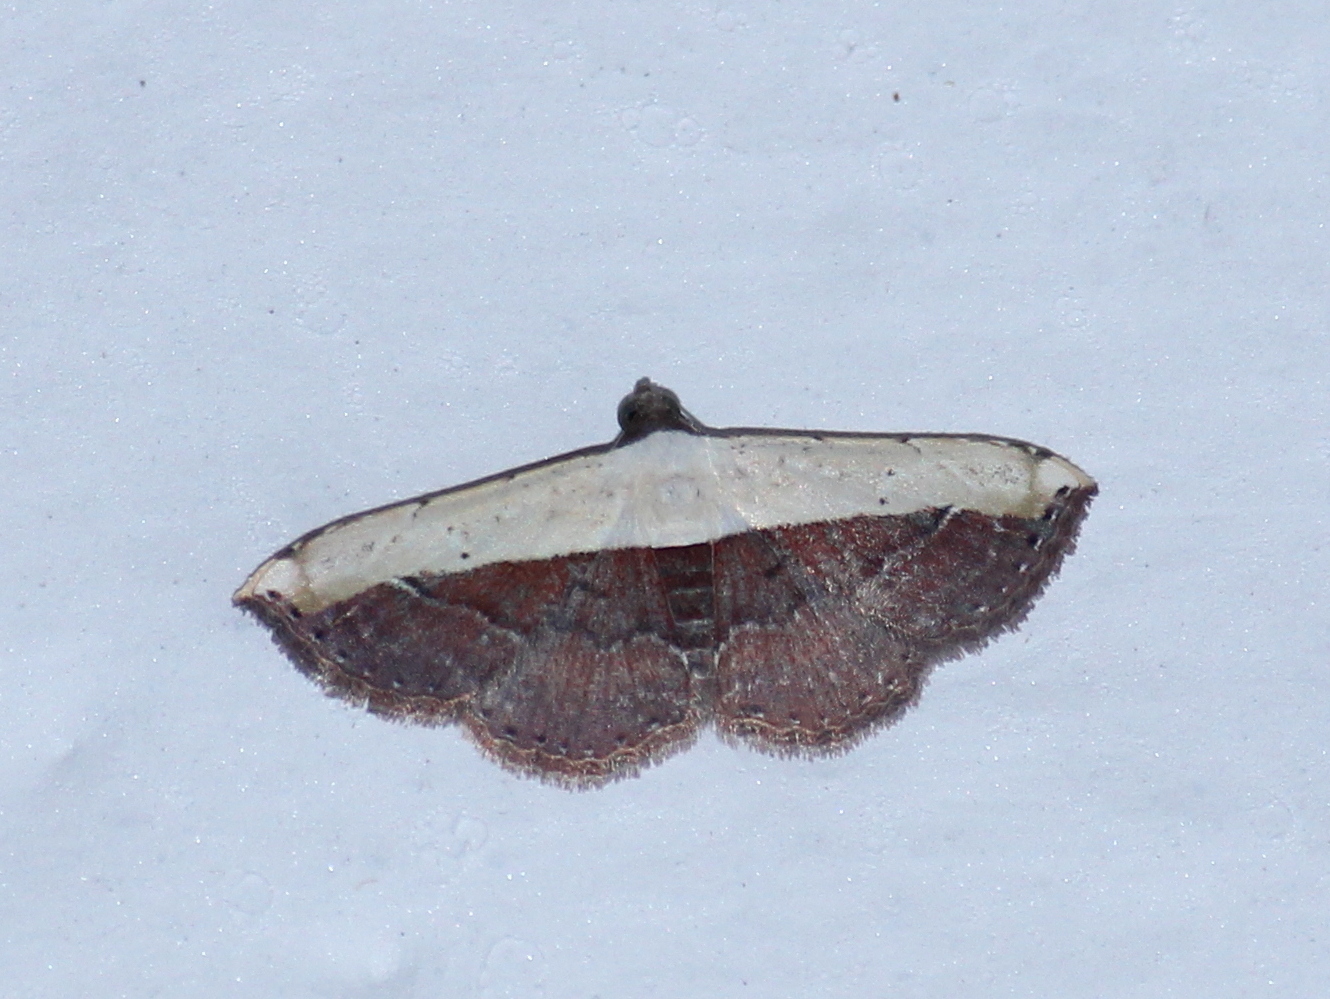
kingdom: Animalia
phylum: Arthropoda
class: Insecta
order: Lepidoptera
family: Noctuidae
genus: Ataboruza
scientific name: Ataboruza divisa
